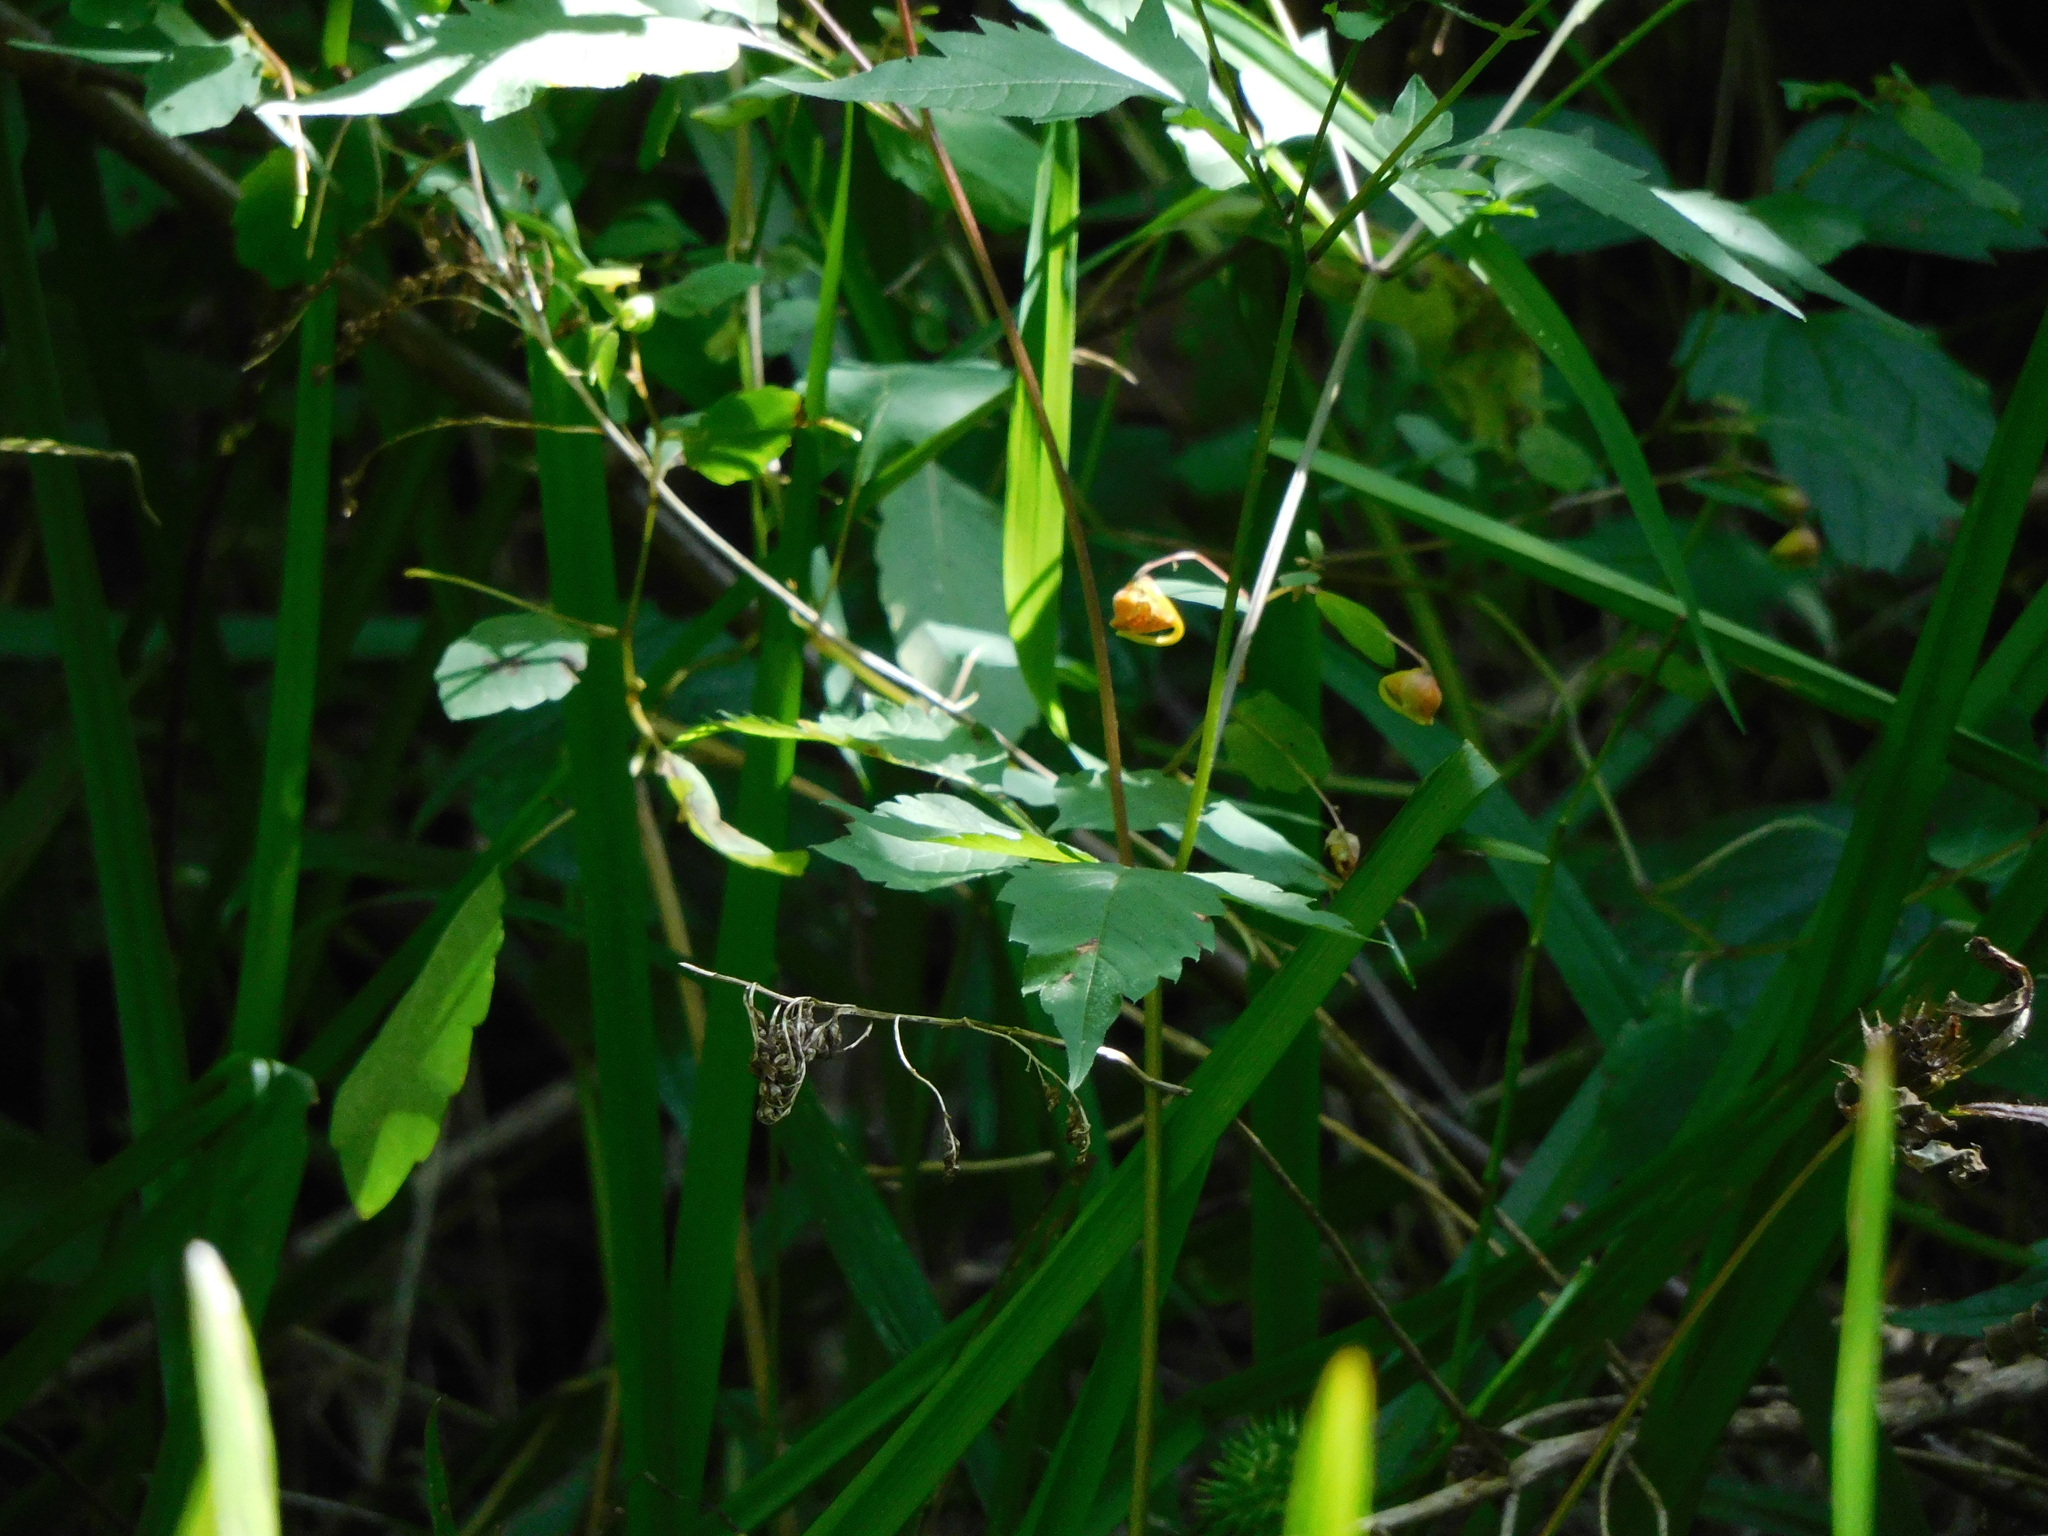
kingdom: Plantae
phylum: Tracheophyta
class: Magnoliopsida
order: Ericales
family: Balsaminaceae
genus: Impatiens
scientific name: Impatiens capensis
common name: Orange balsam
